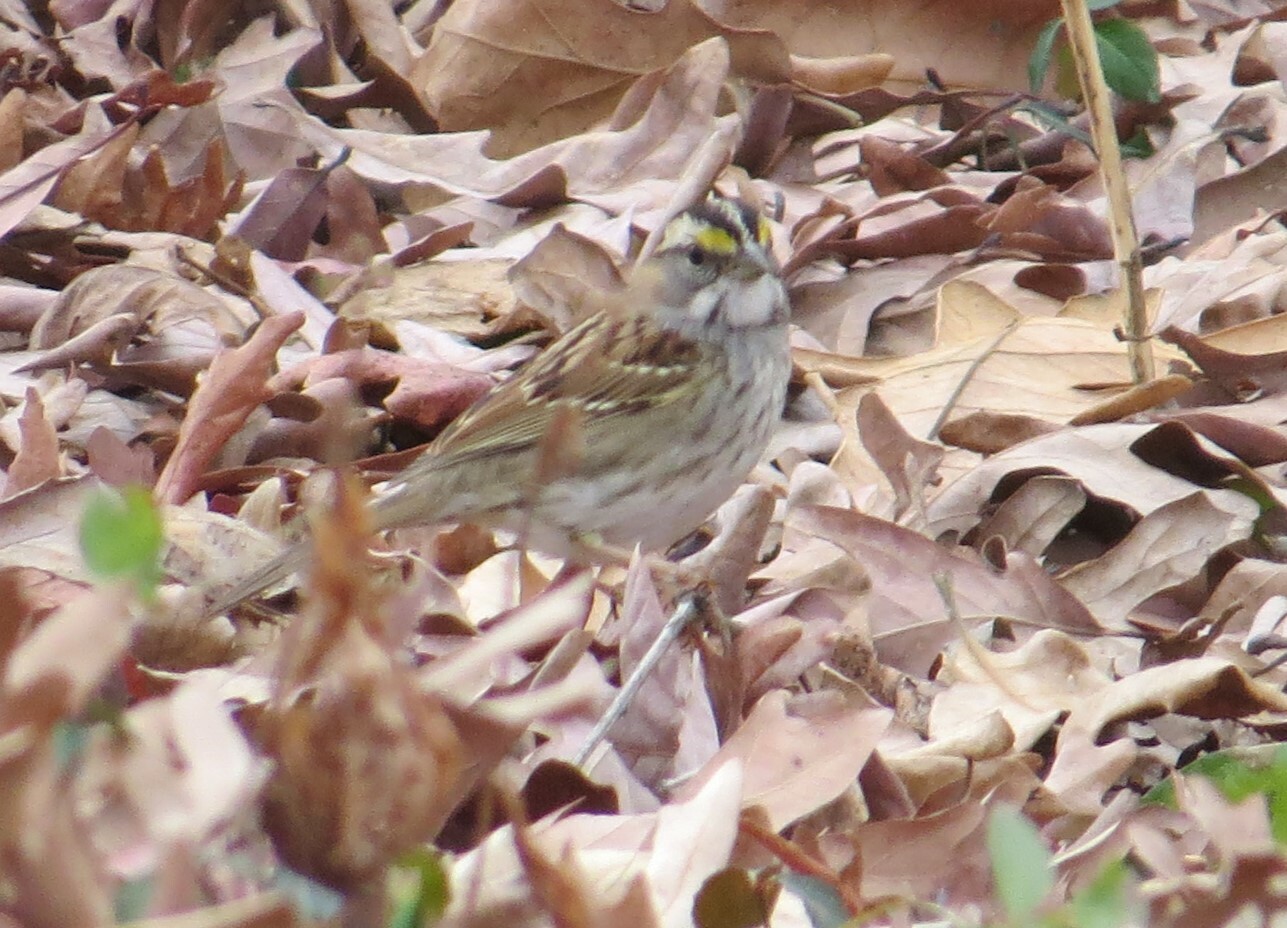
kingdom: Animalia
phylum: Chordata
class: Aves
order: Passeriformes
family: Passerellidae
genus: Zonotrichia
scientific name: Zonotrichia albicollis
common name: White-throated sparrow
